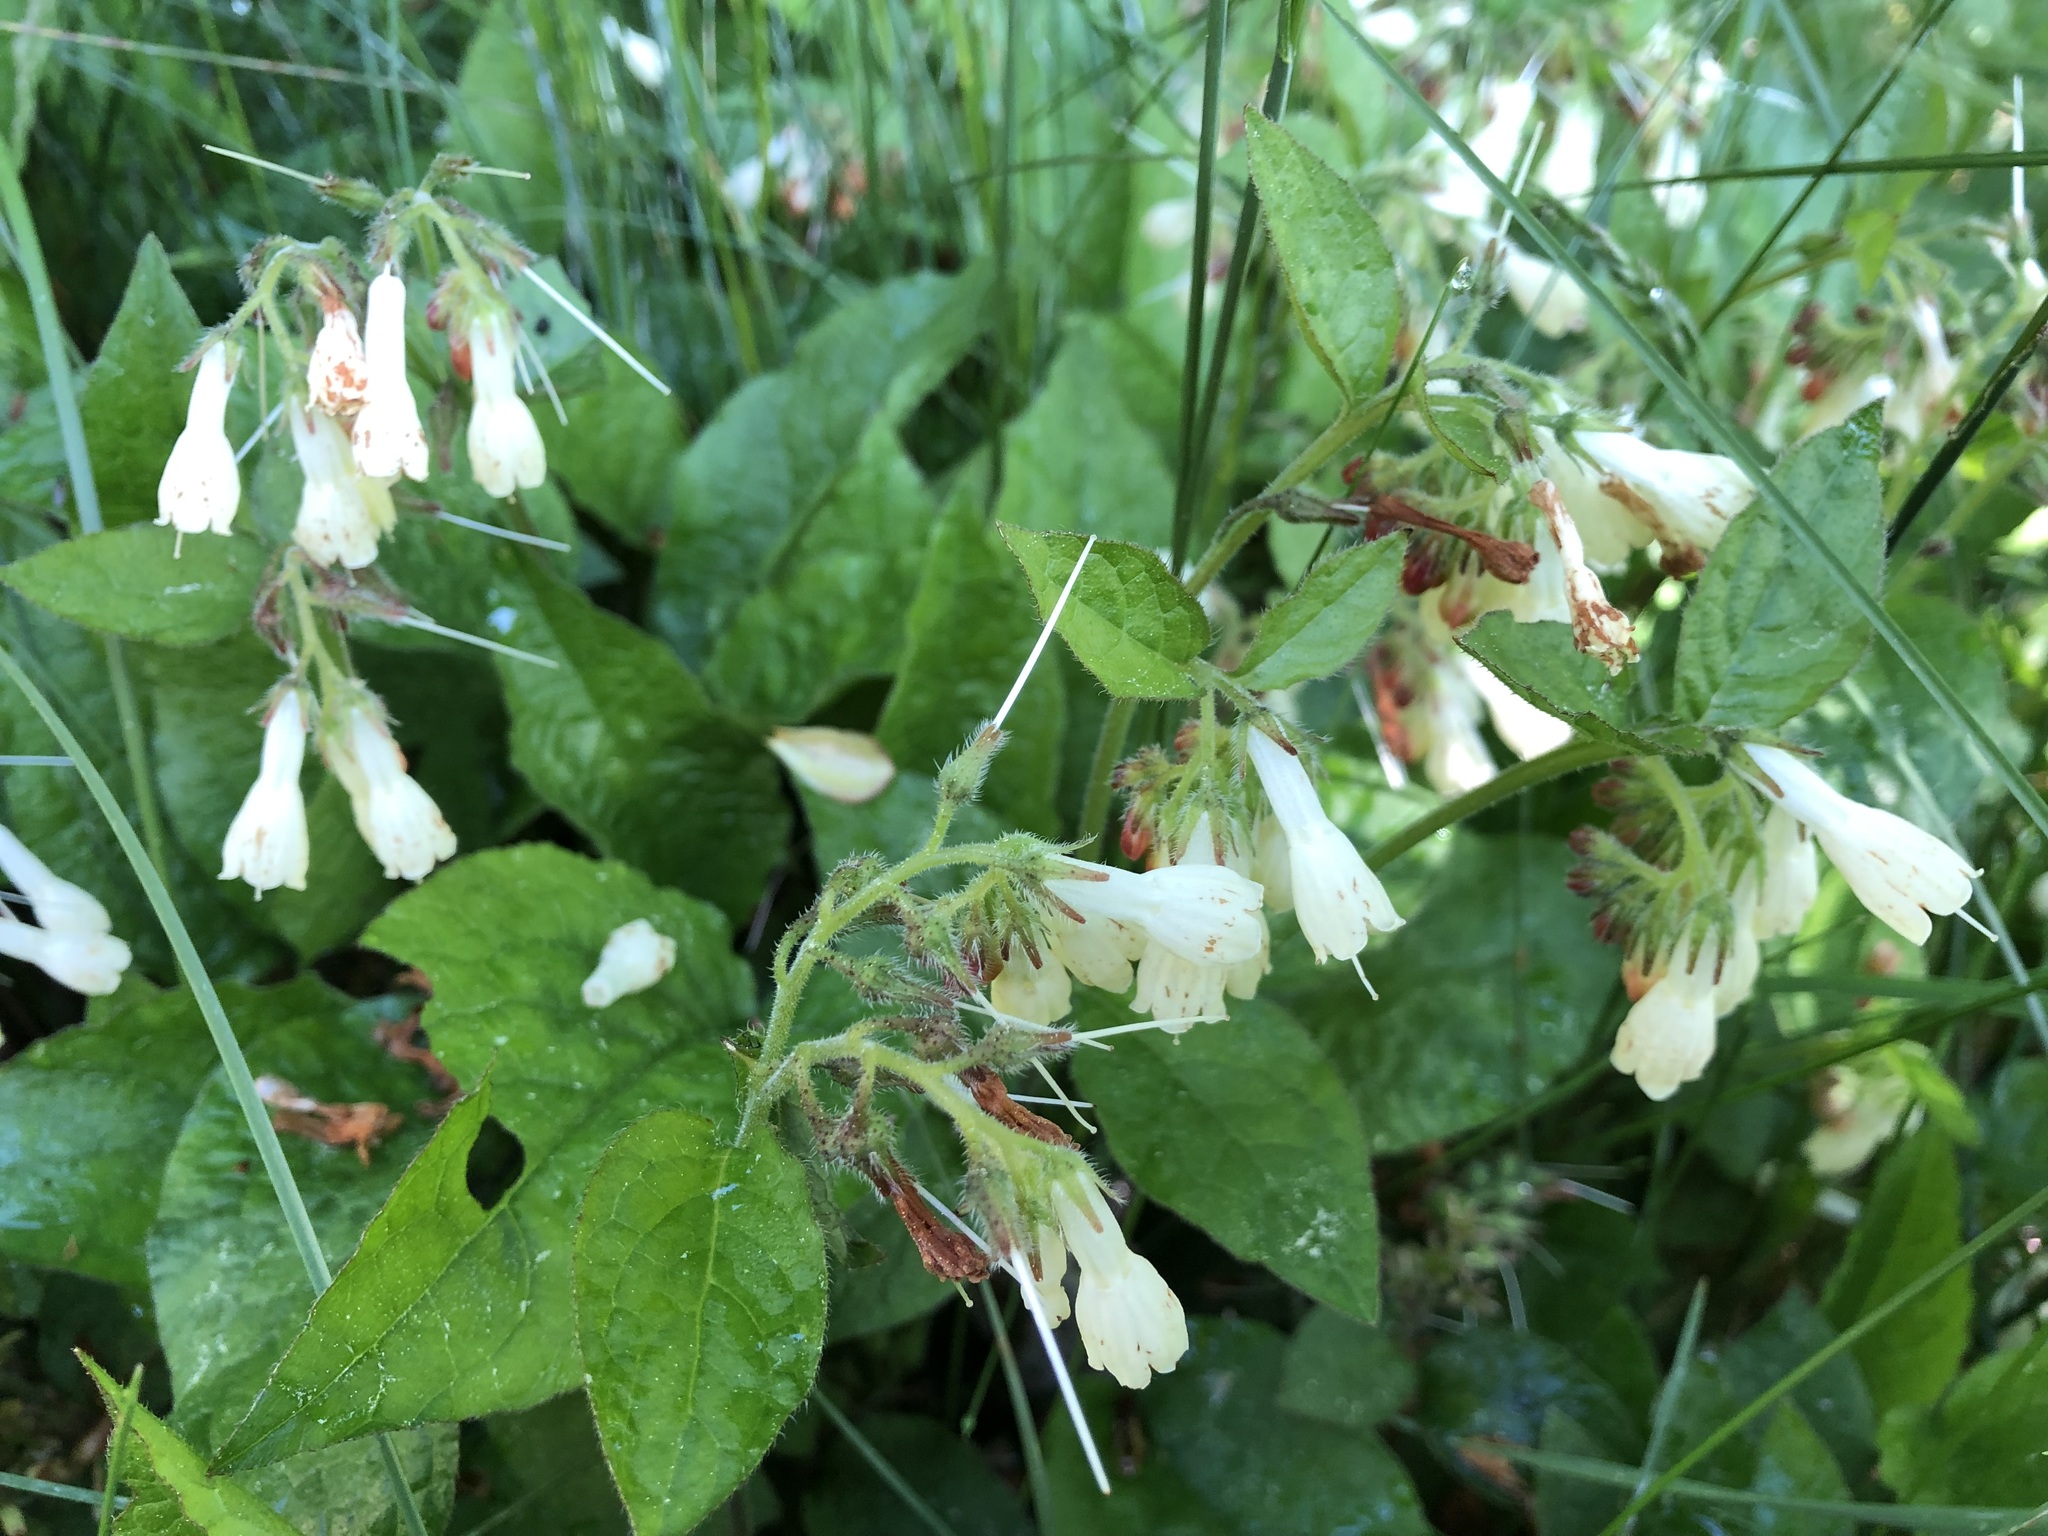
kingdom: Plantae
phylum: Tracheophyta
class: Magnoliopsida
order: Boraginales
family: Boraginaceae
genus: Symphytum
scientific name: Symphytum tuberosum
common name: Tuberous comfrey
